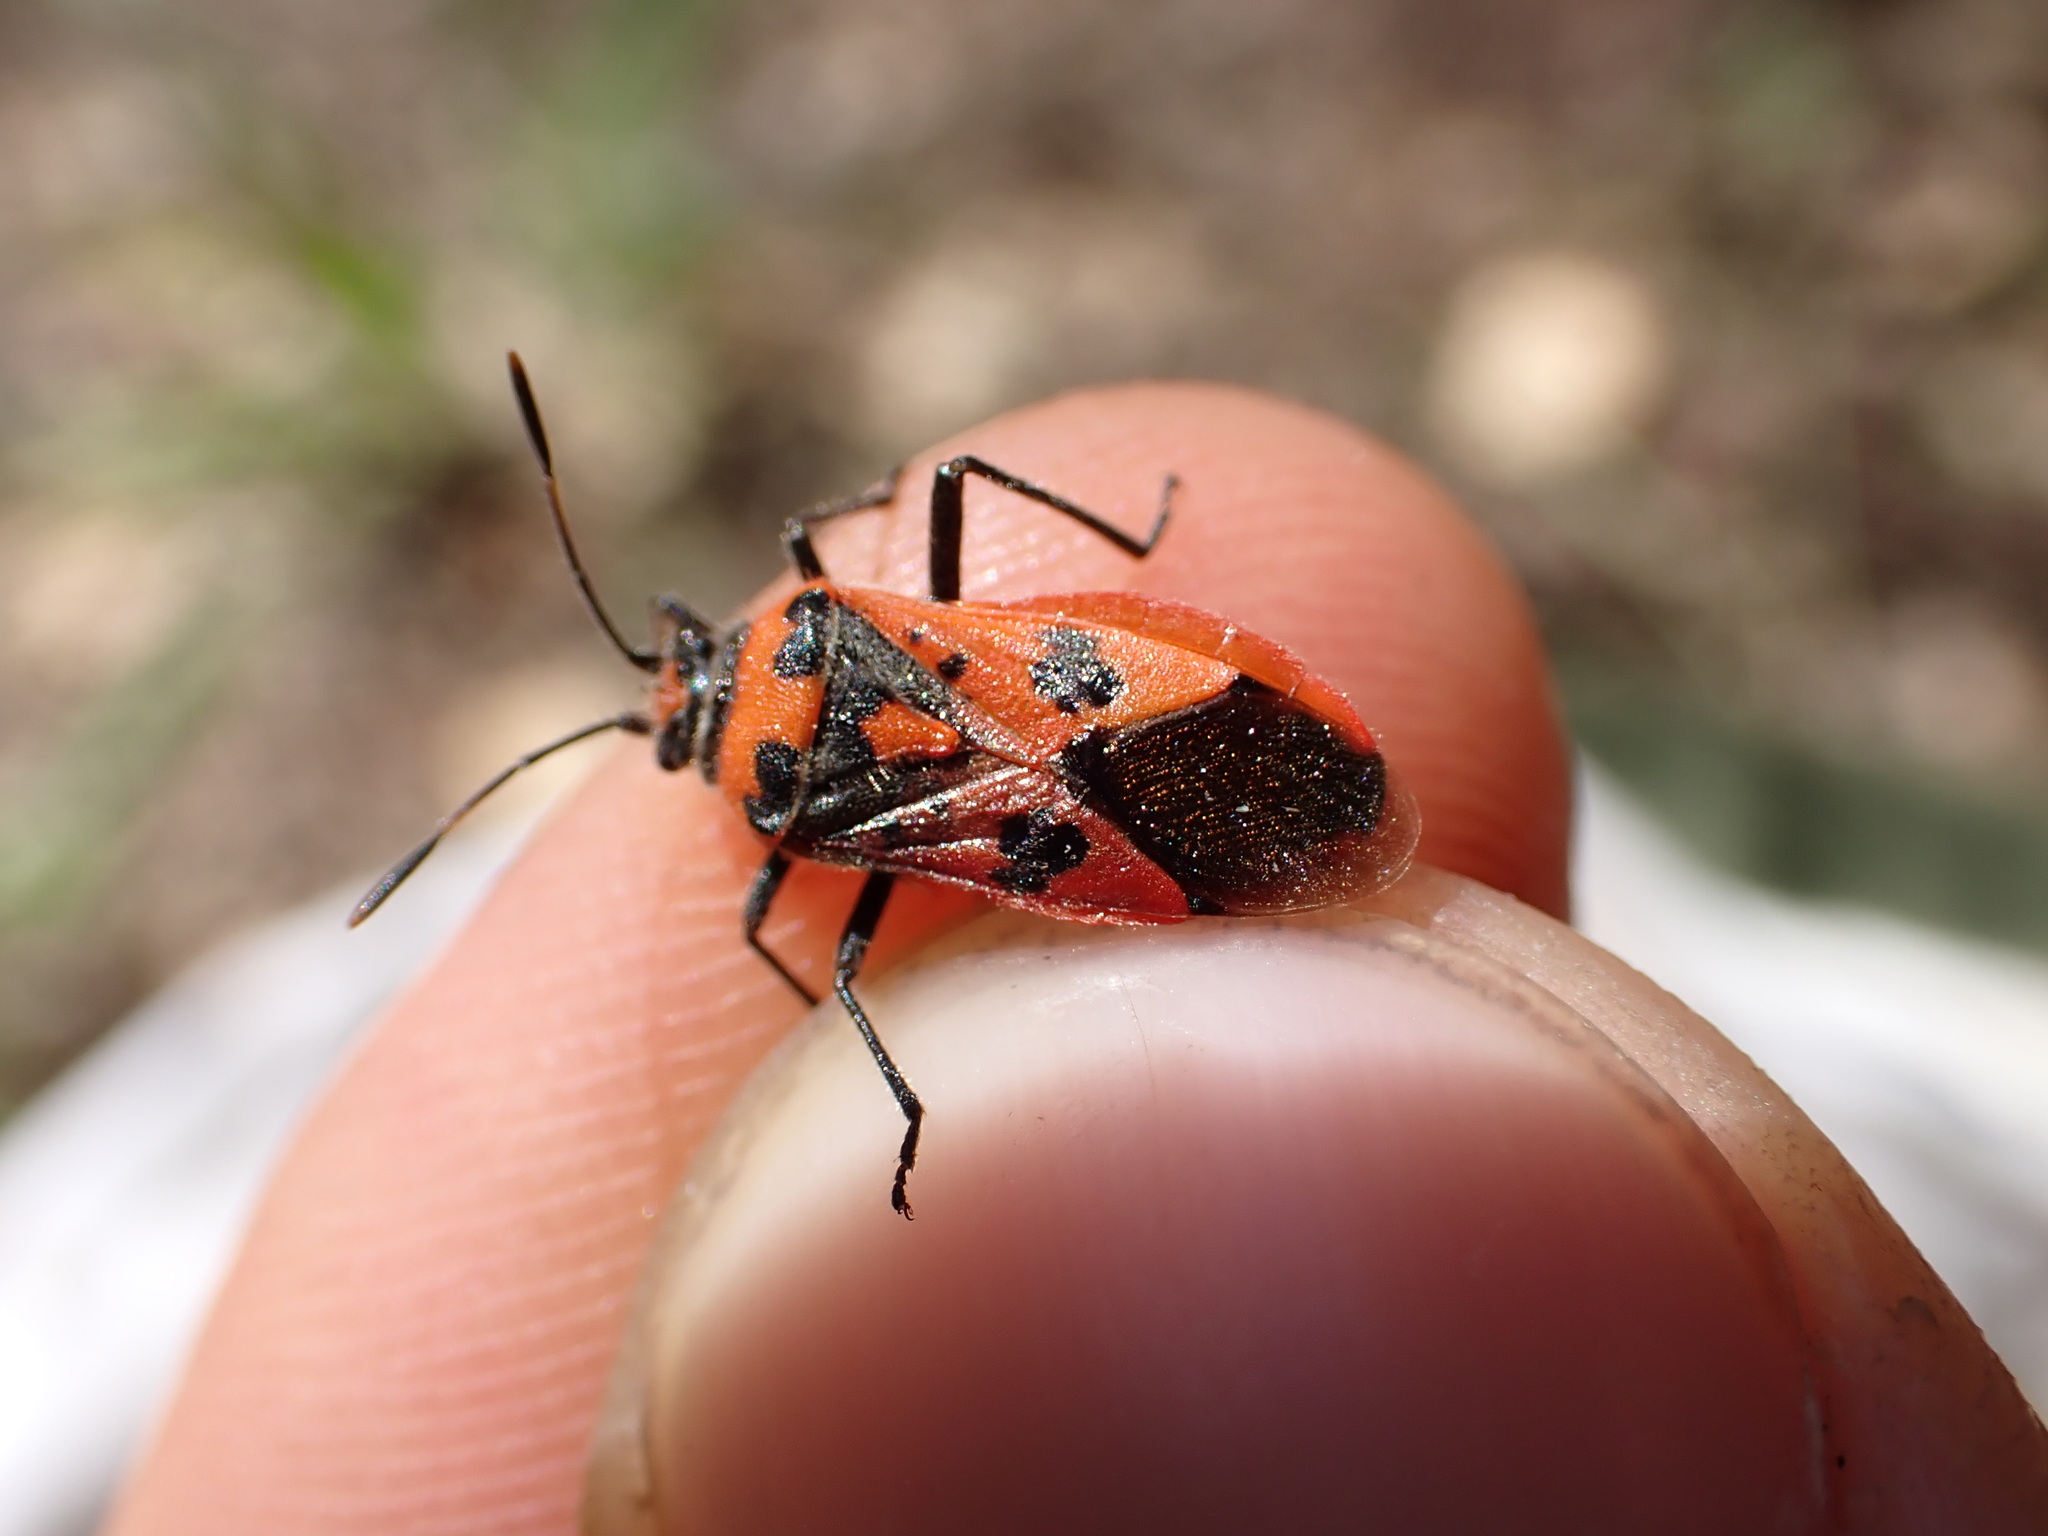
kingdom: Animalia
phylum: Arthropoda
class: Insecta
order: Hemiptera
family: Rhopalidae
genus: Corizus
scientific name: Corizus hyoscyami
